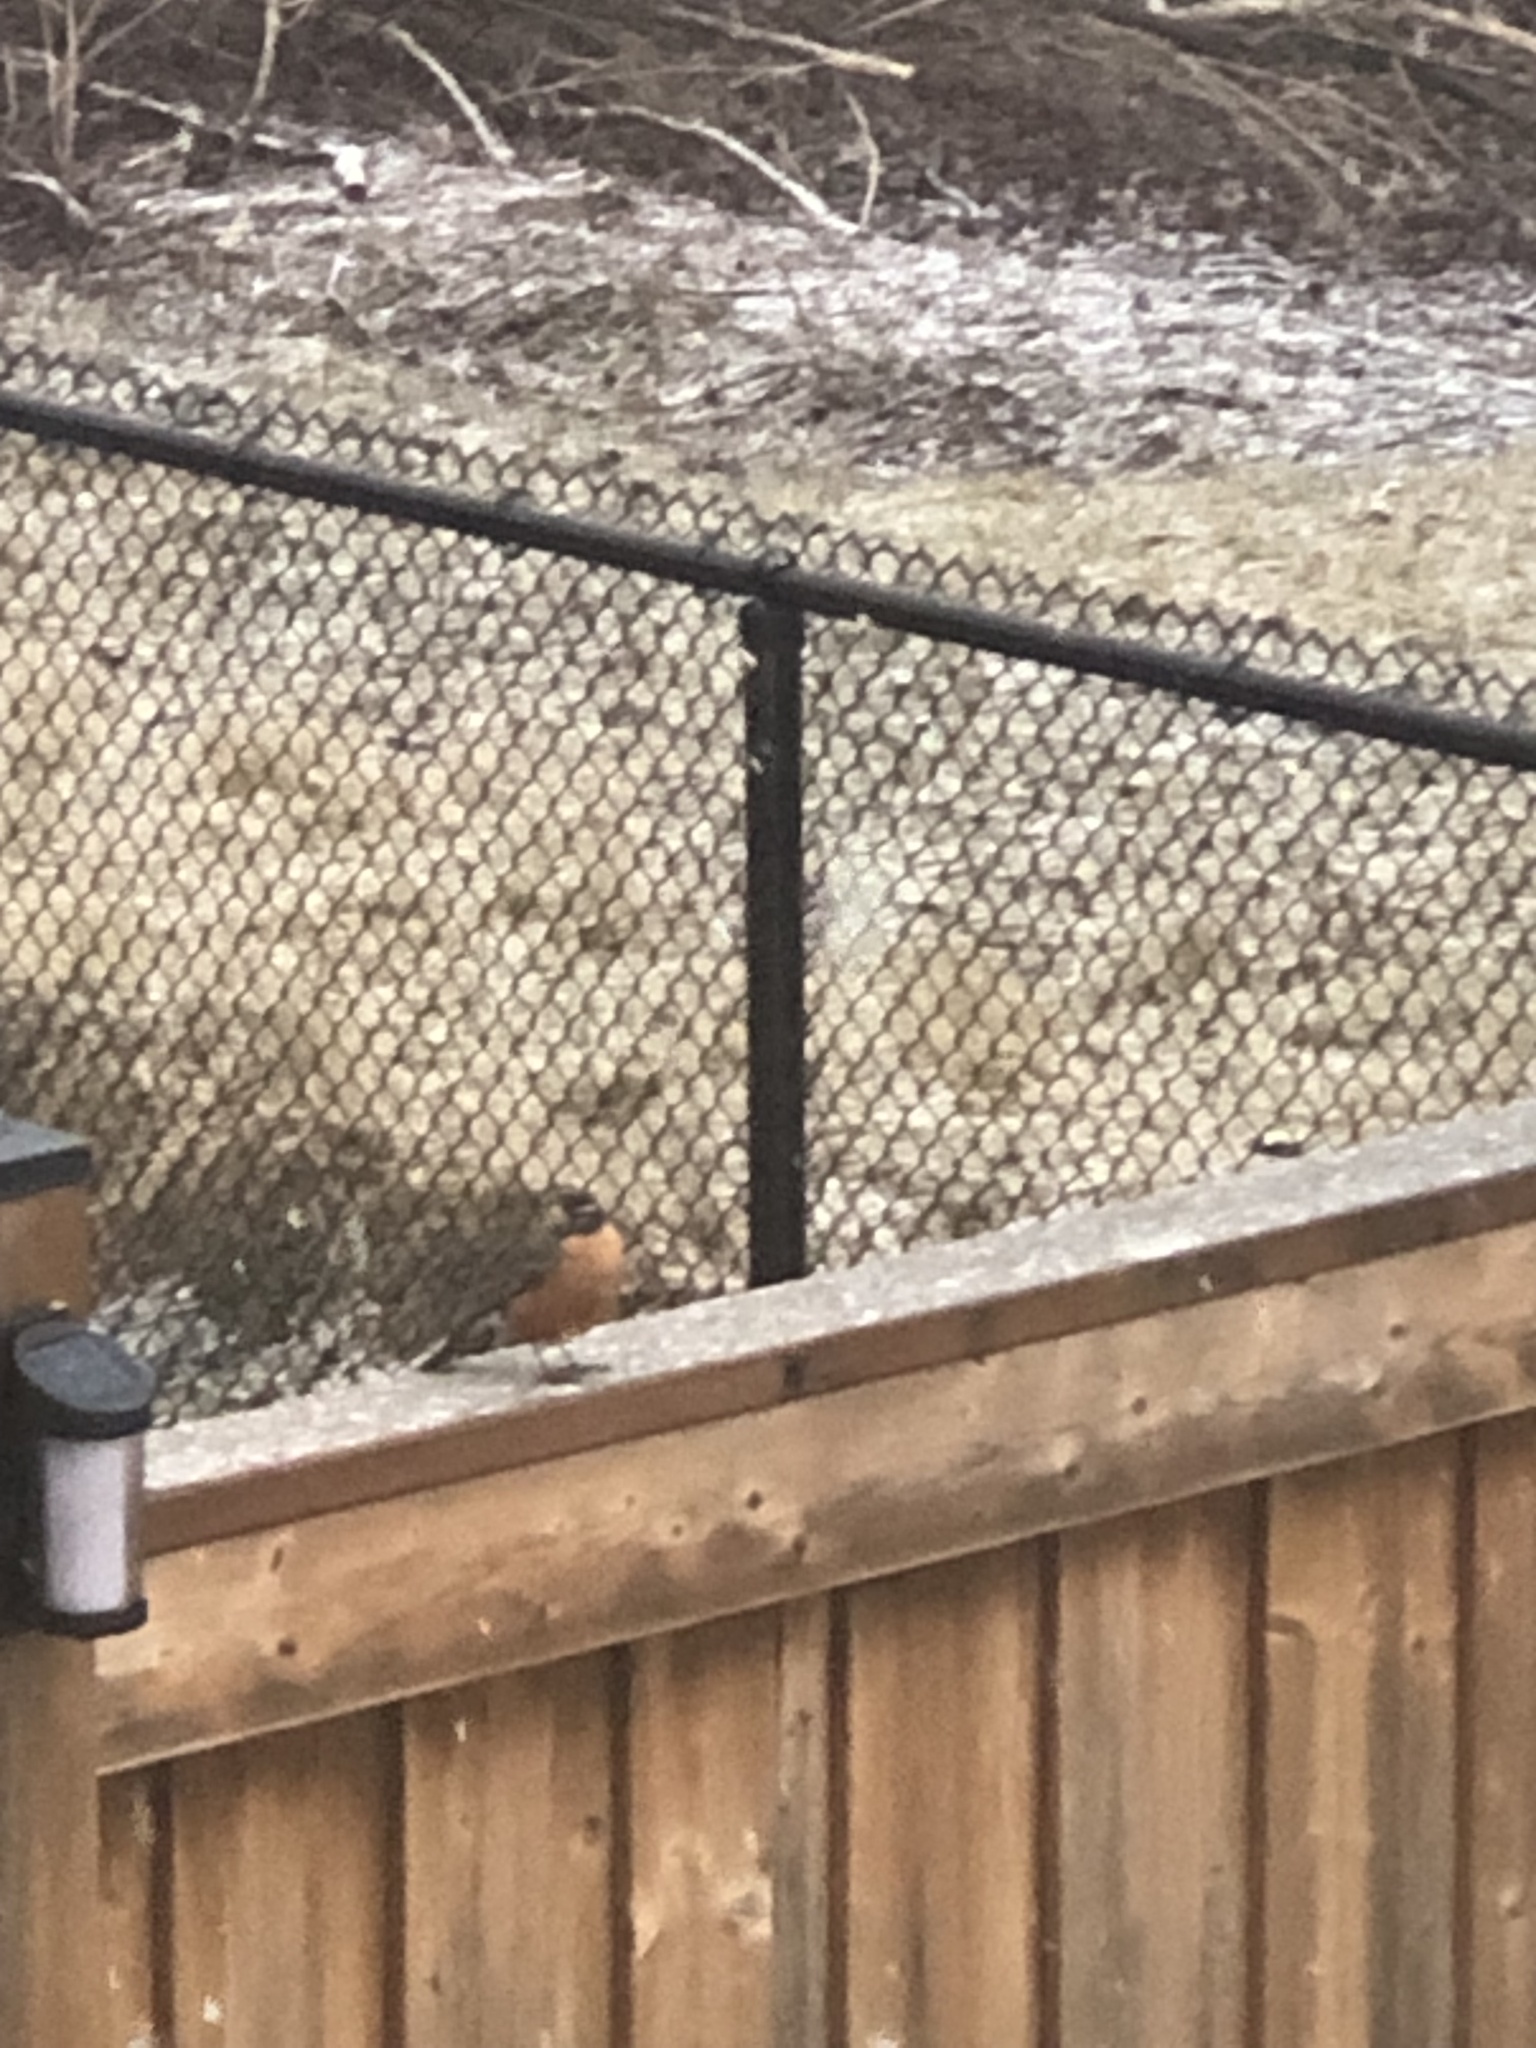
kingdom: Animalia
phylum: Chordata
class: Aves
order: Passeriformes
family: Turdidae
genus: Turdus
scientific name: Turdus migratorius
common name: American robin
